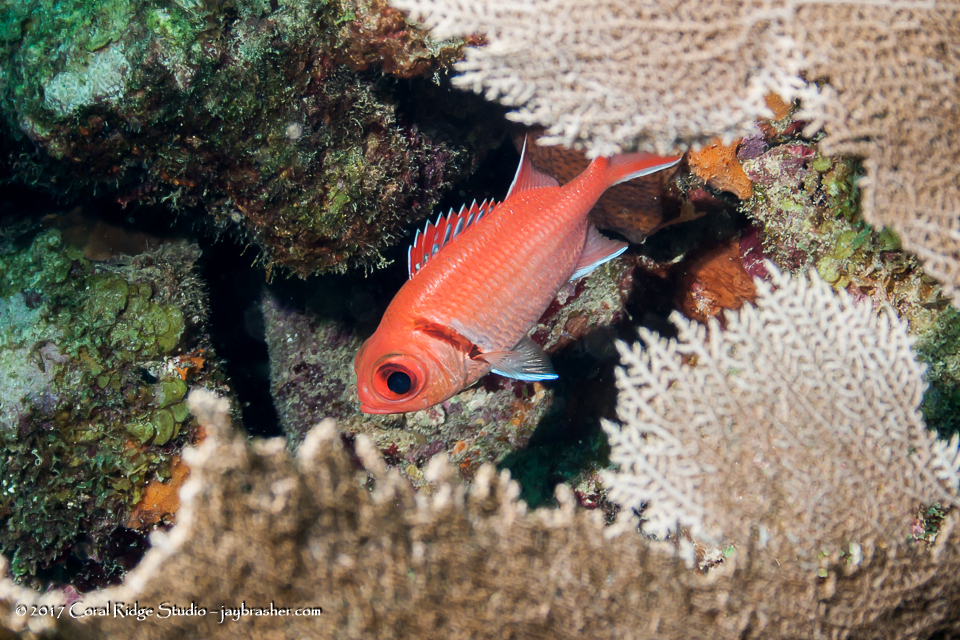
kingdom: Animalia
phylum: Chordata
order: Beryciformes
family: Holocentridae
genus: Myripristis
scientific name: Myripristis jacobus
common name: Blackbar soldierfish
